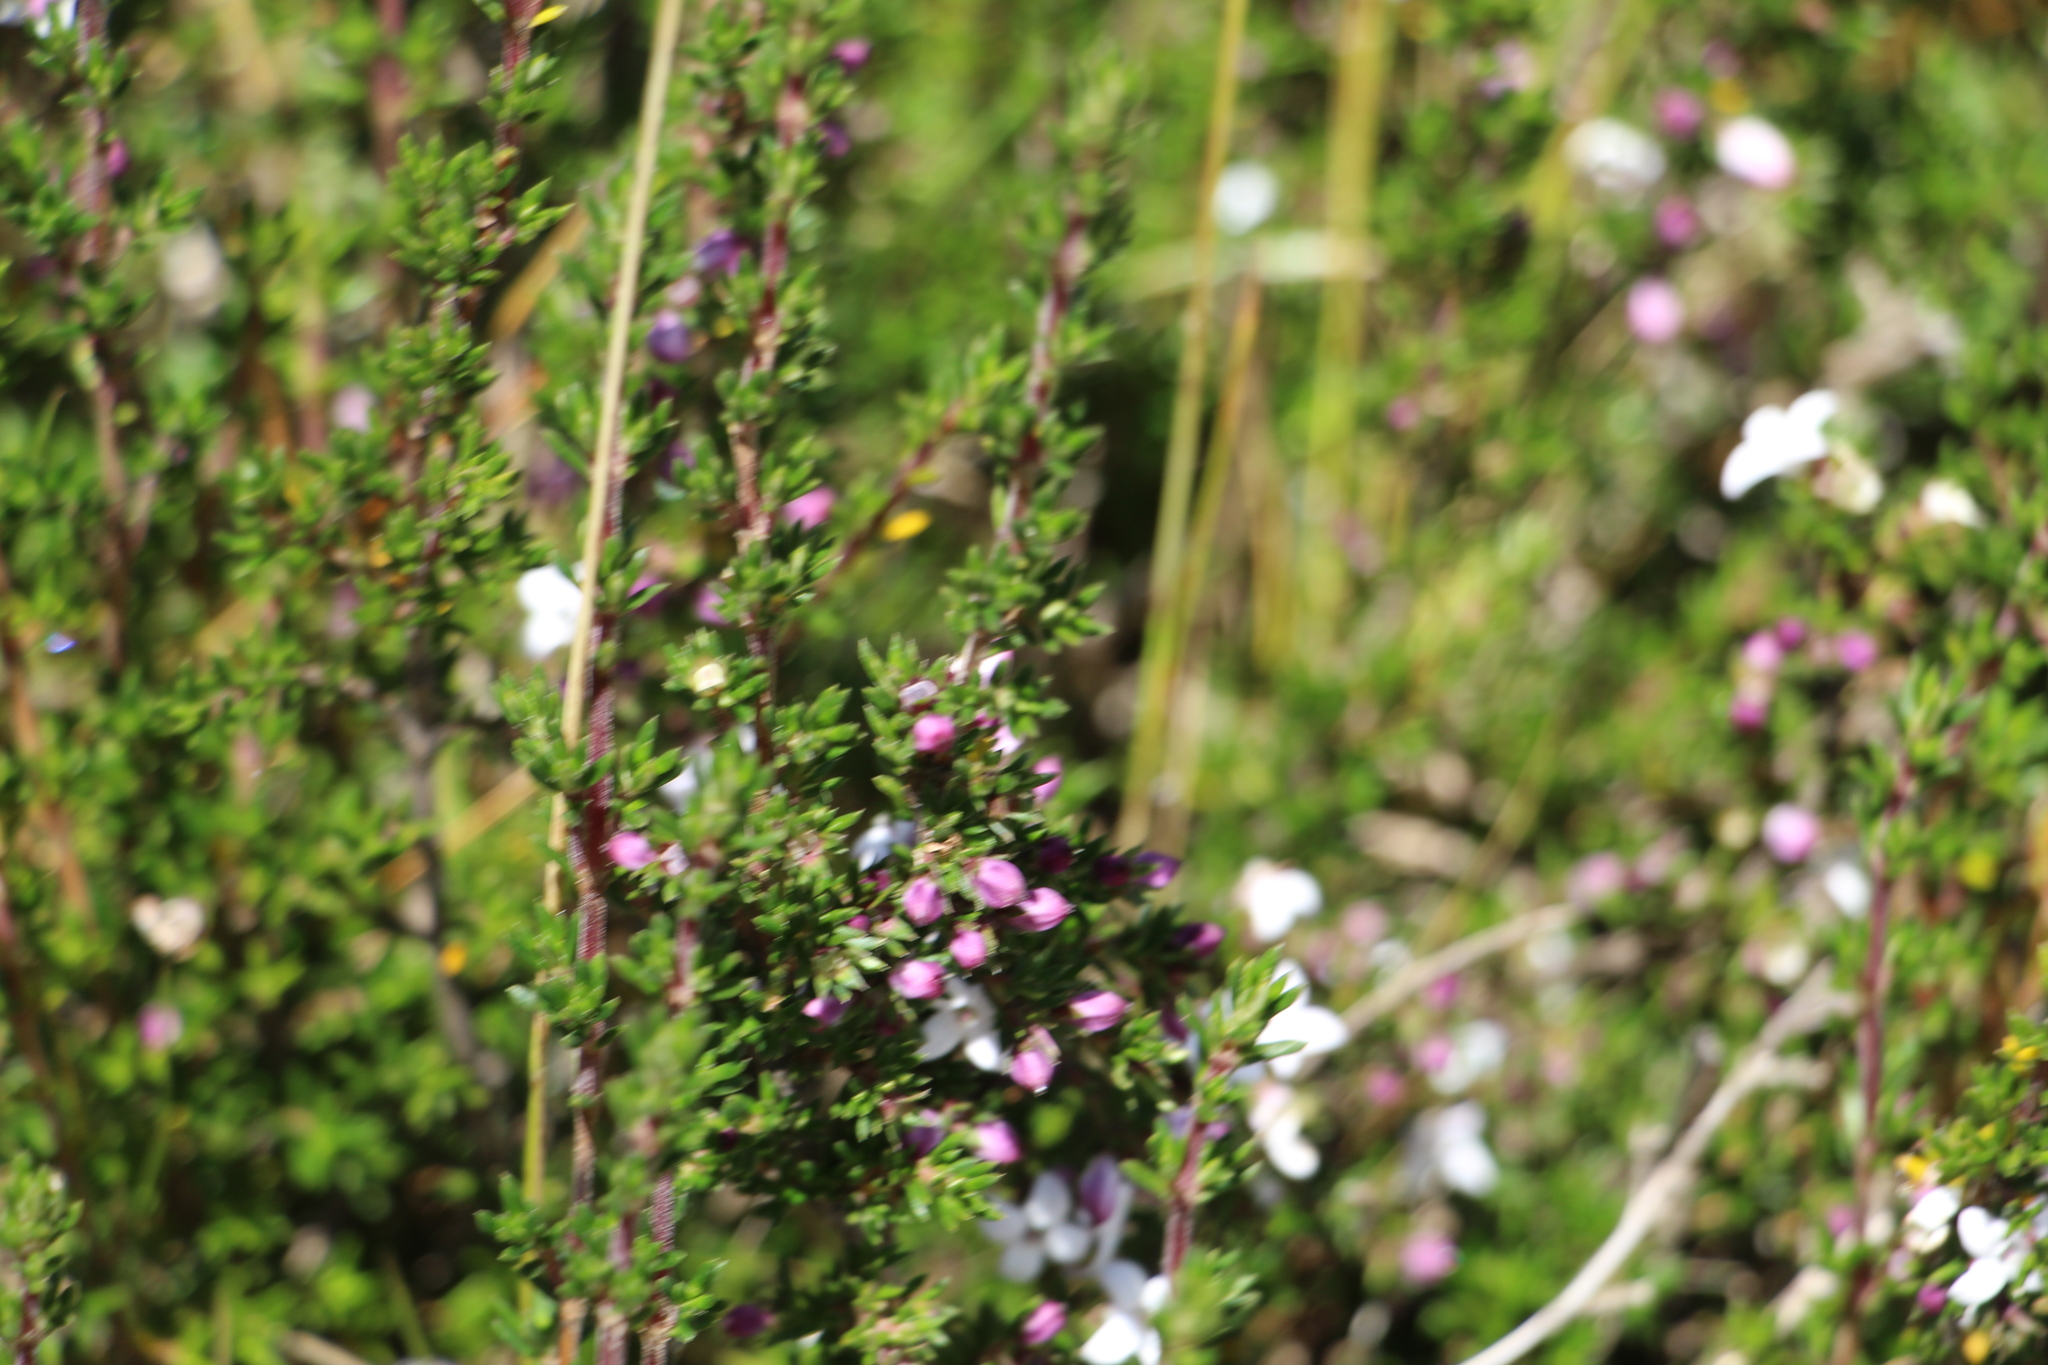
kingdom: Plantae
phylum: Tracheophyta
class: Magnoliopsida
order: Gentianales
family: Rubiaceae
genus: Arcytophyllum
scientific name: Arcytophyllum nitidum
